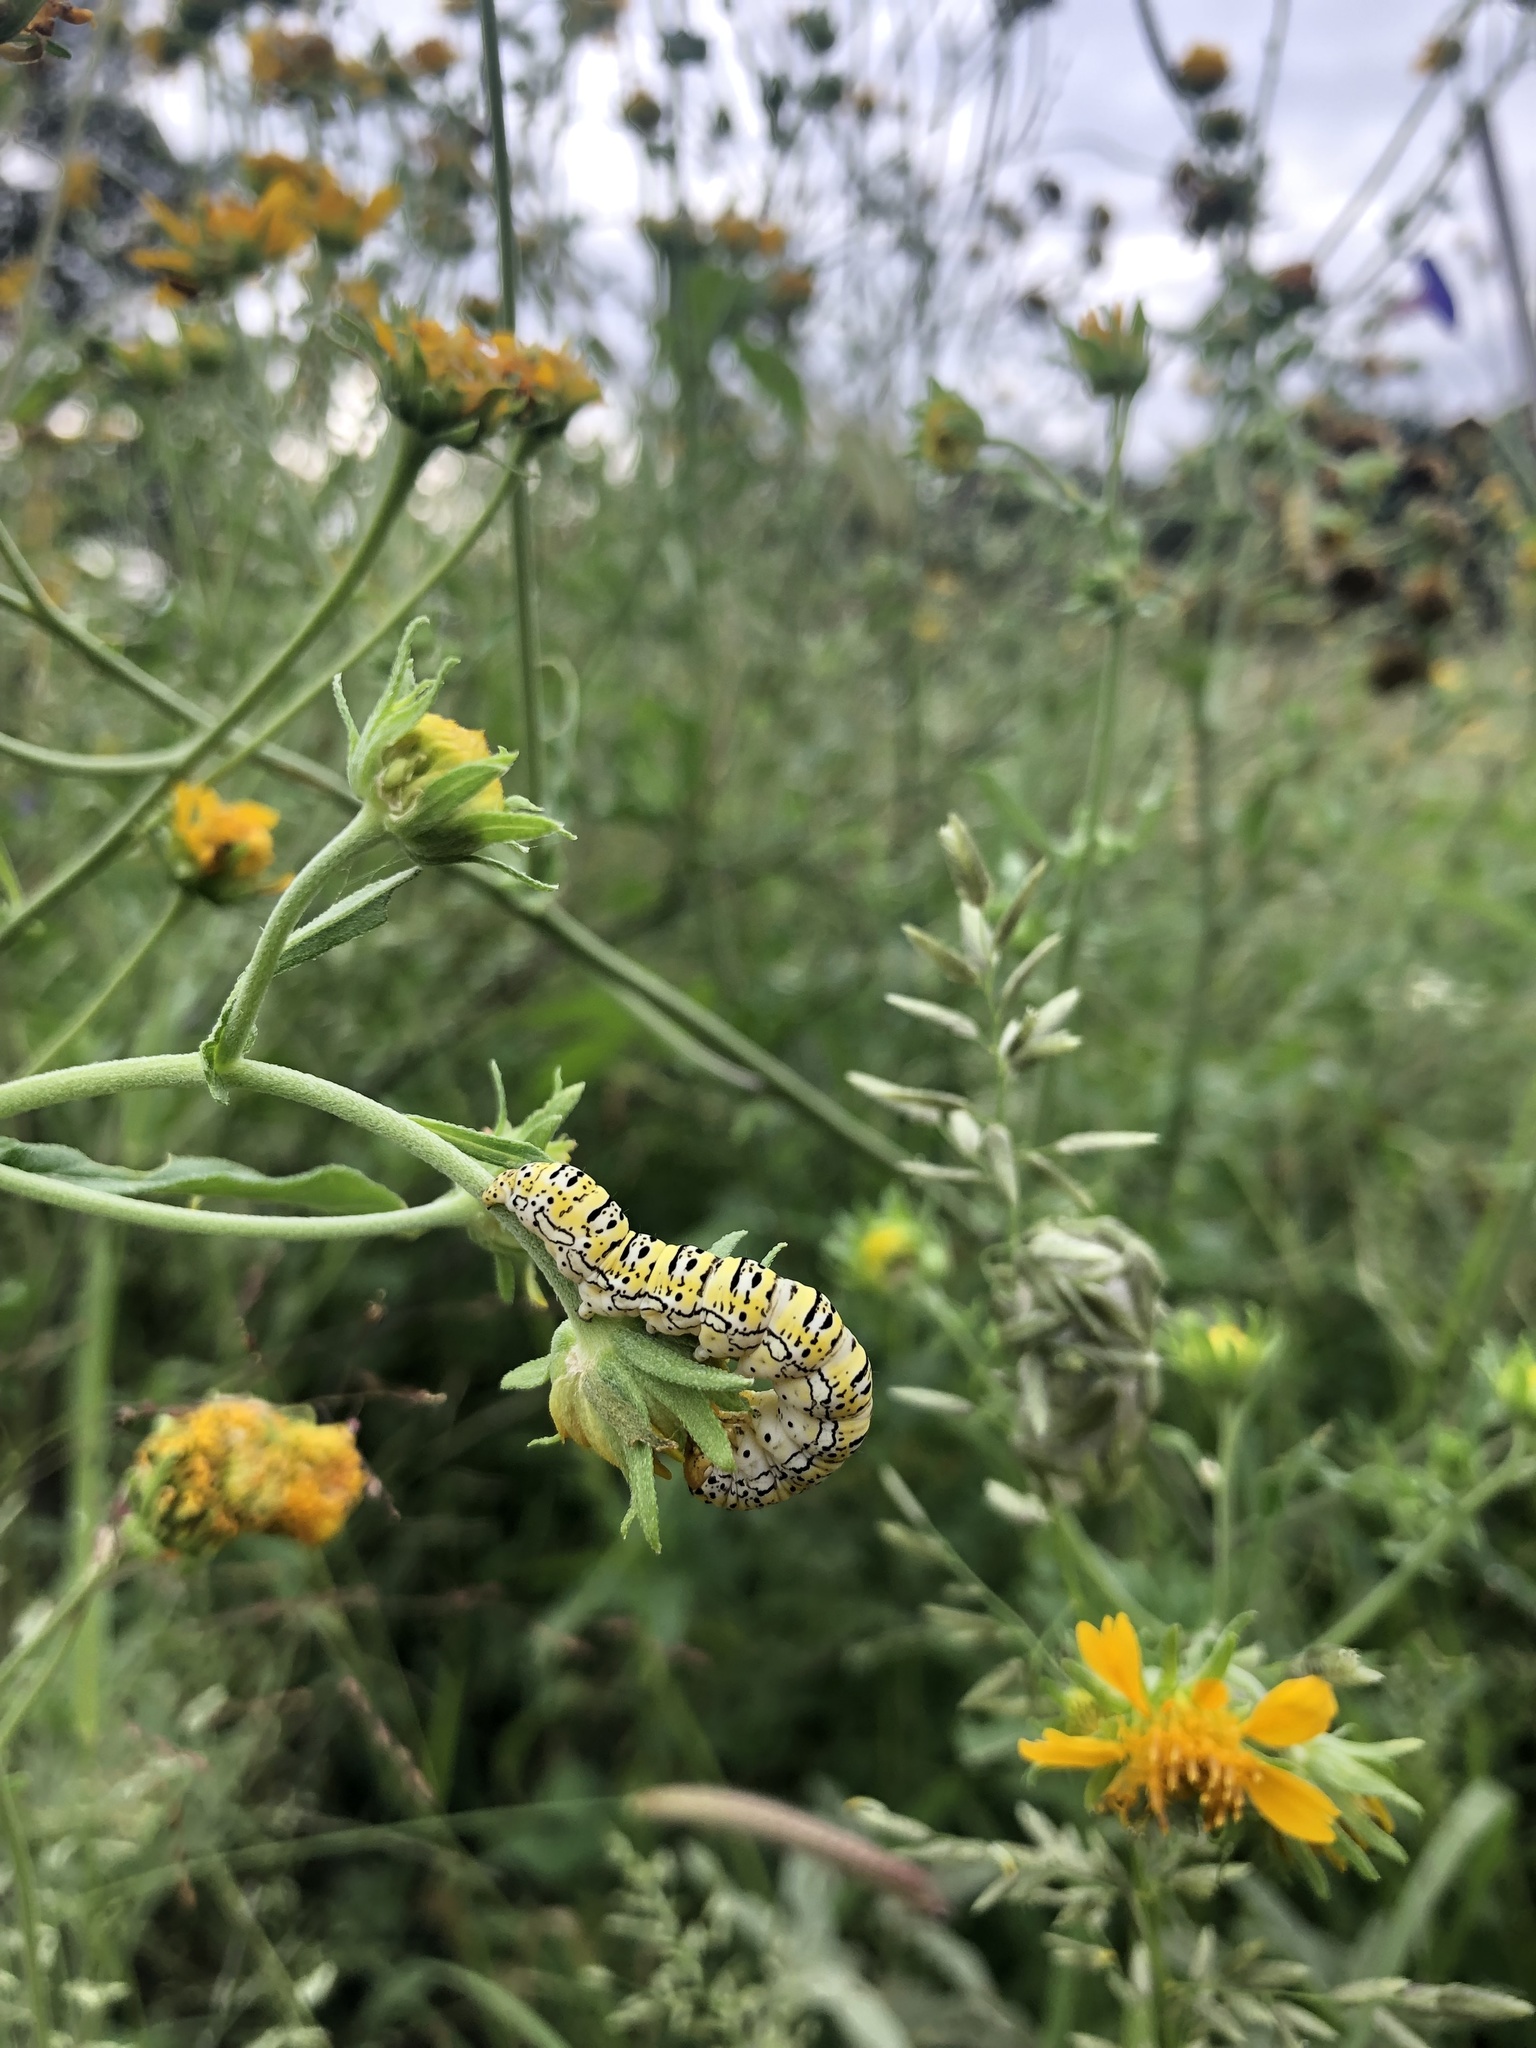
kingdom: Animalia
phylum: Arthropoda
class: Insecta
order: Lepidoptera
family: Noctuidae
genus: Basilodes
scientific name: Basilodes chrysopis
